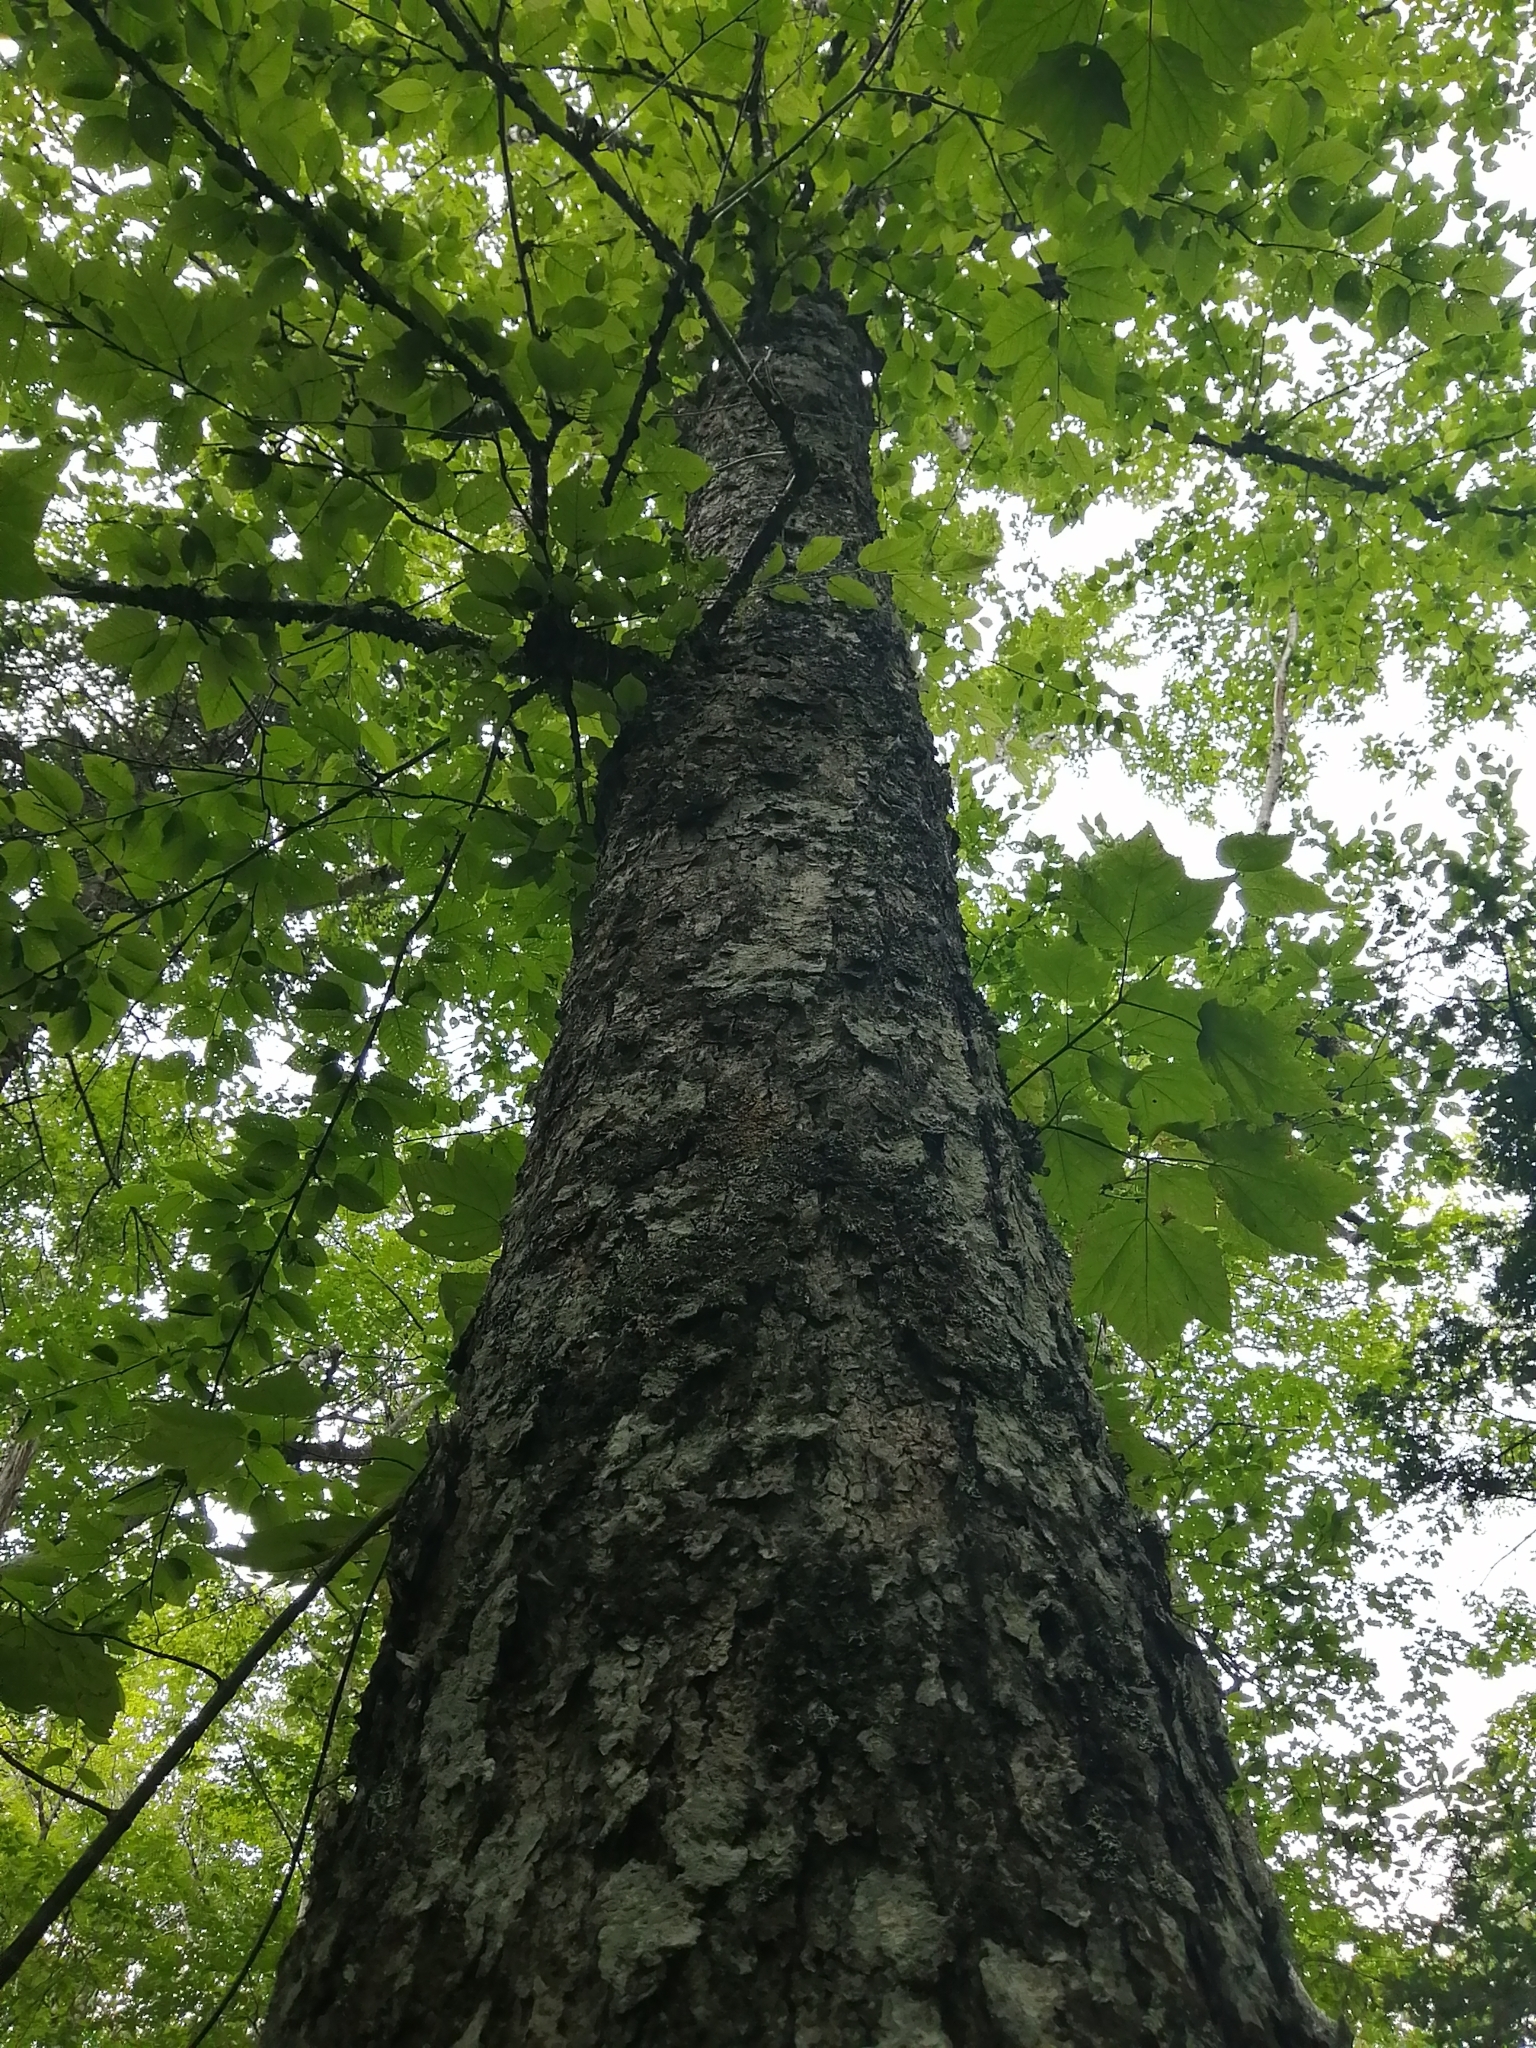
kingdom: Plantae
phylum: Tracheophyta
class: Magnoliopsida
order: Fagales
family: Betulaceae
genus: Betula
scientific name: Betula alleghaniensis
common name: Yellow birch
